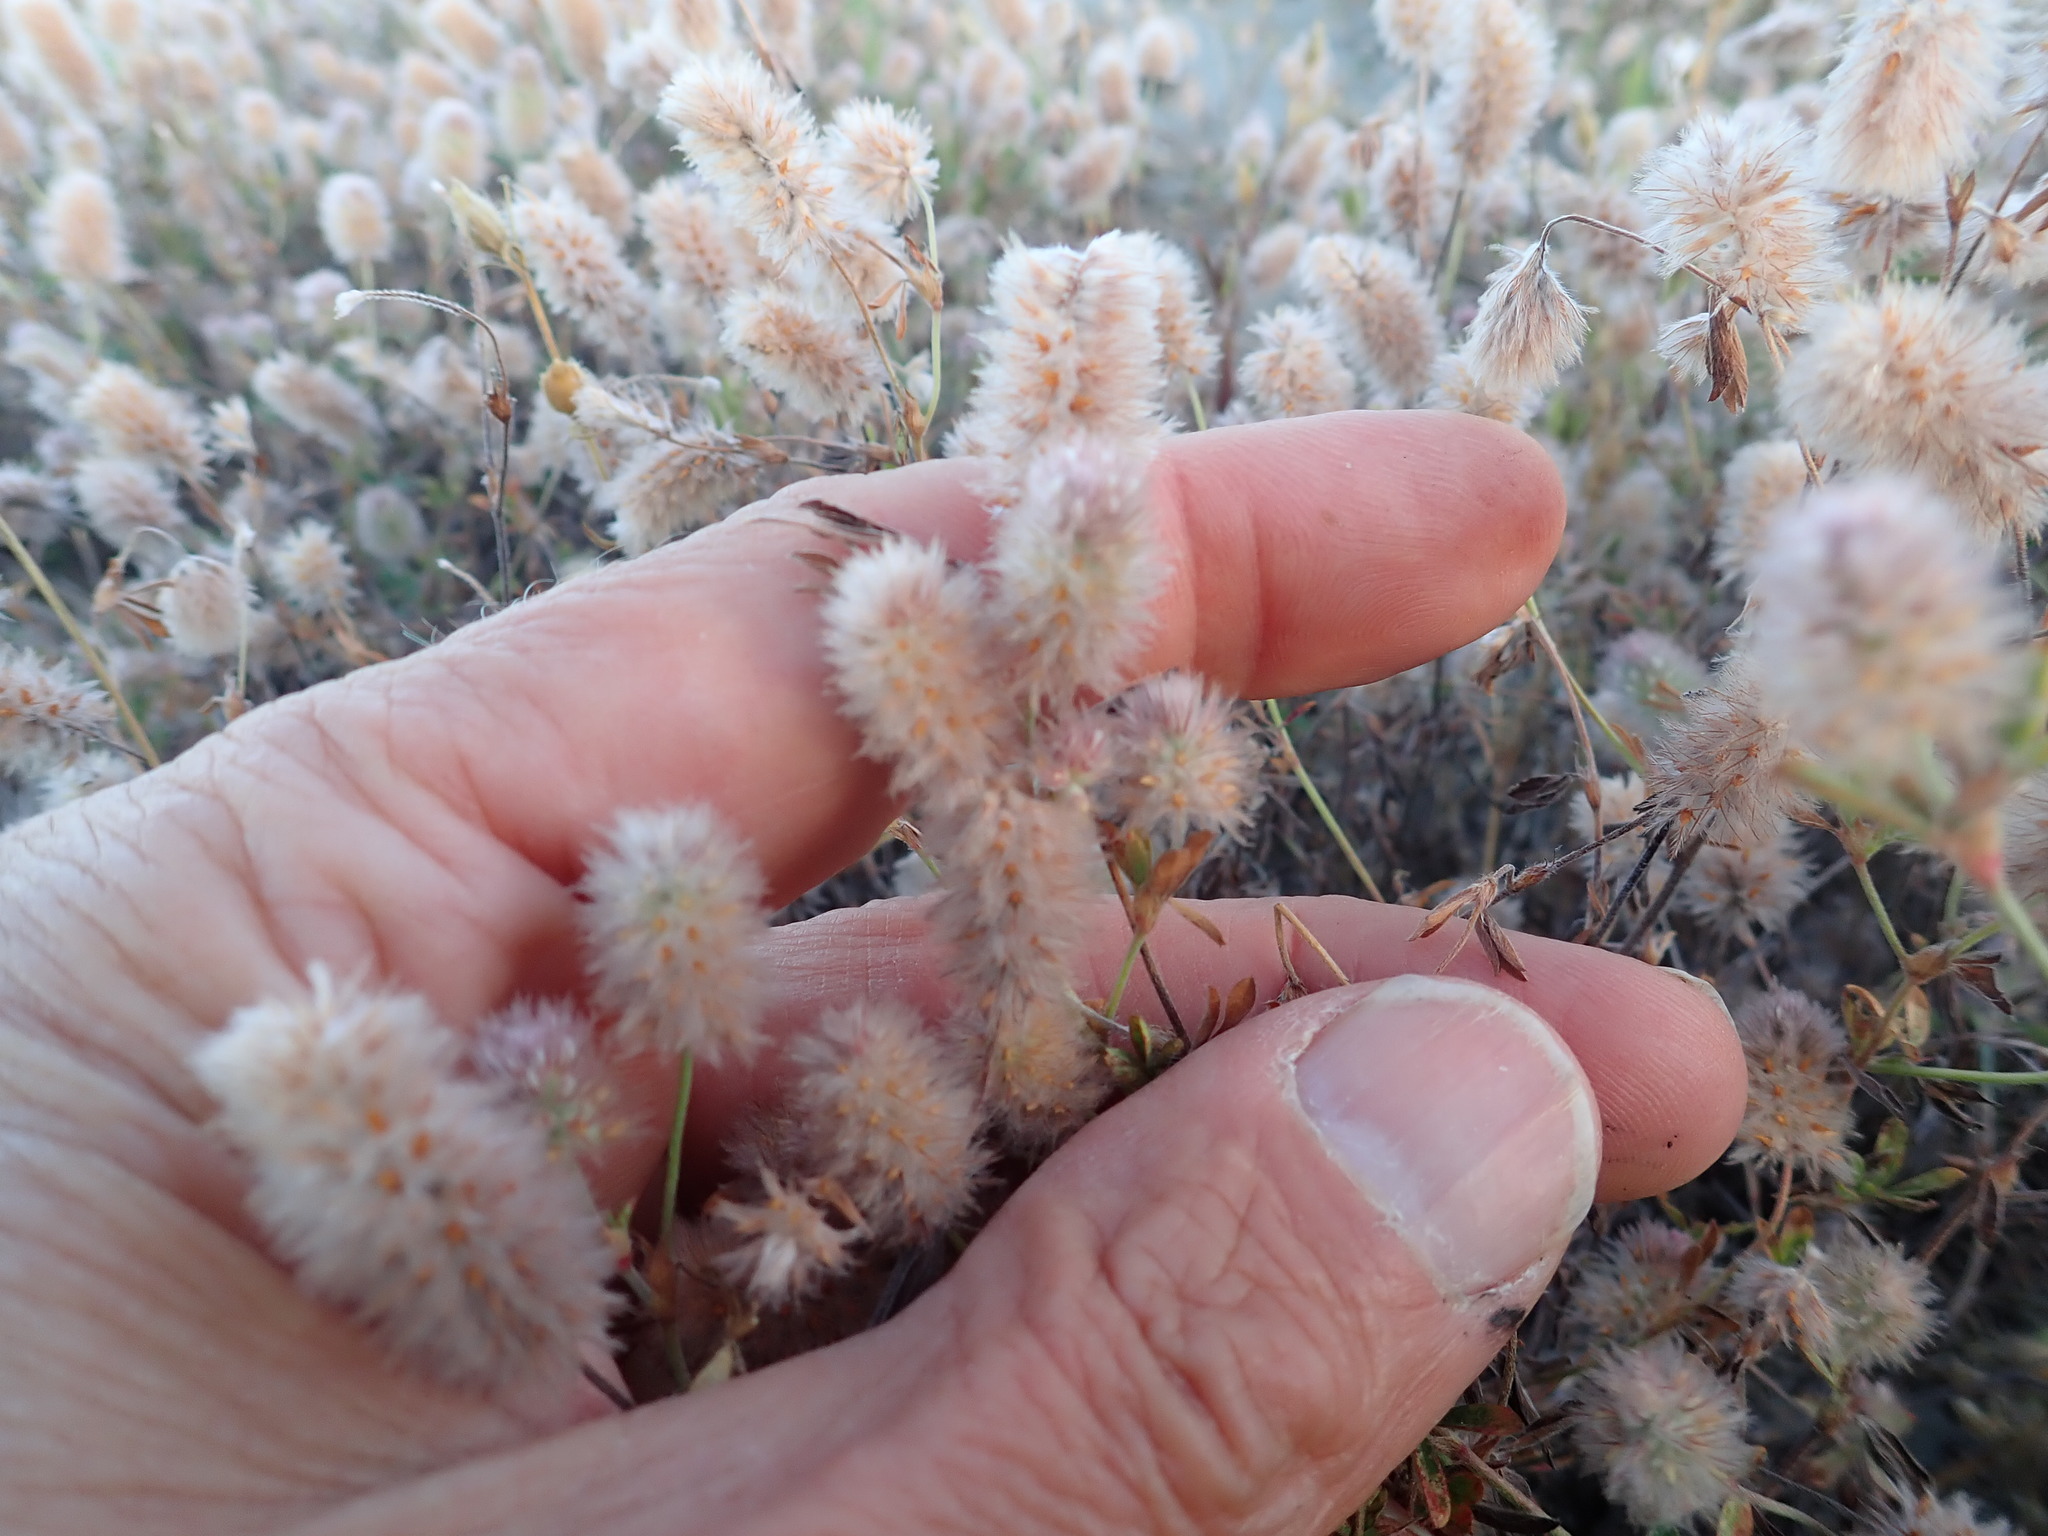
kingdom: Plantae
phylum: Tracheophyta
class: Magnoliopsida
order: Fabales
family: Fabaceae
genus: Trifolium
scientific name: Trifolium arvense
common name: Hare's-foot clover
